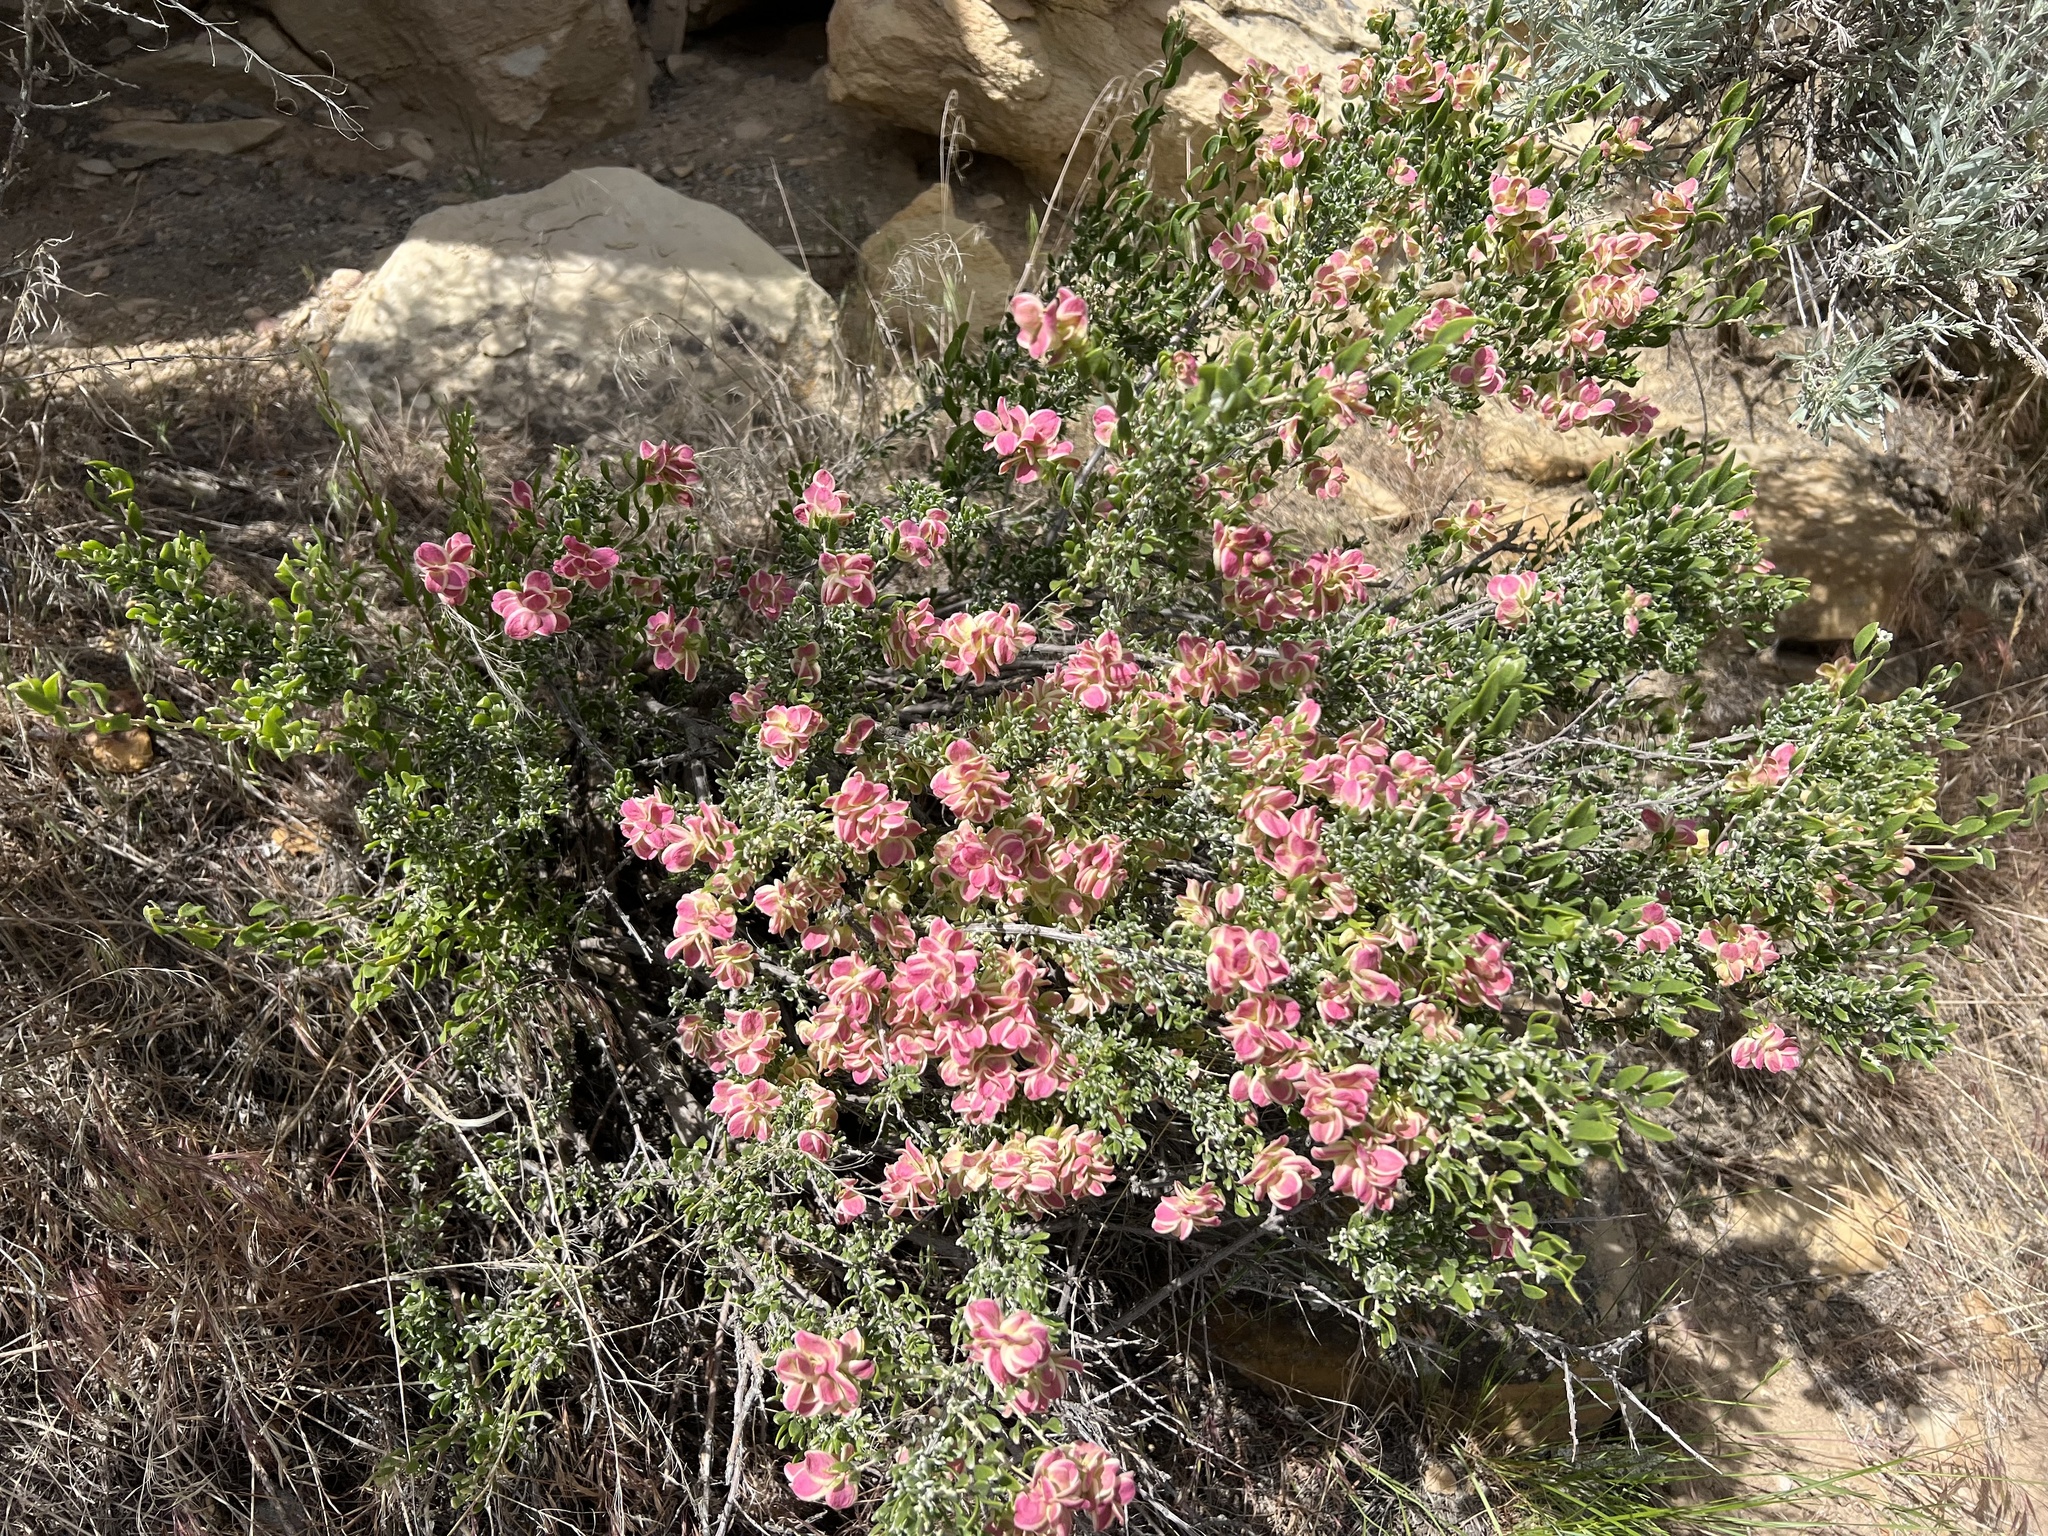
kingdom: Plantae
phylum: Tracheophyta
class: Magnoliopsida
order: Caryophyllales
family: Amaranthaceae
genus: Grayia
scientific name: Grayia spinosa
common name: Spiny hopsage
